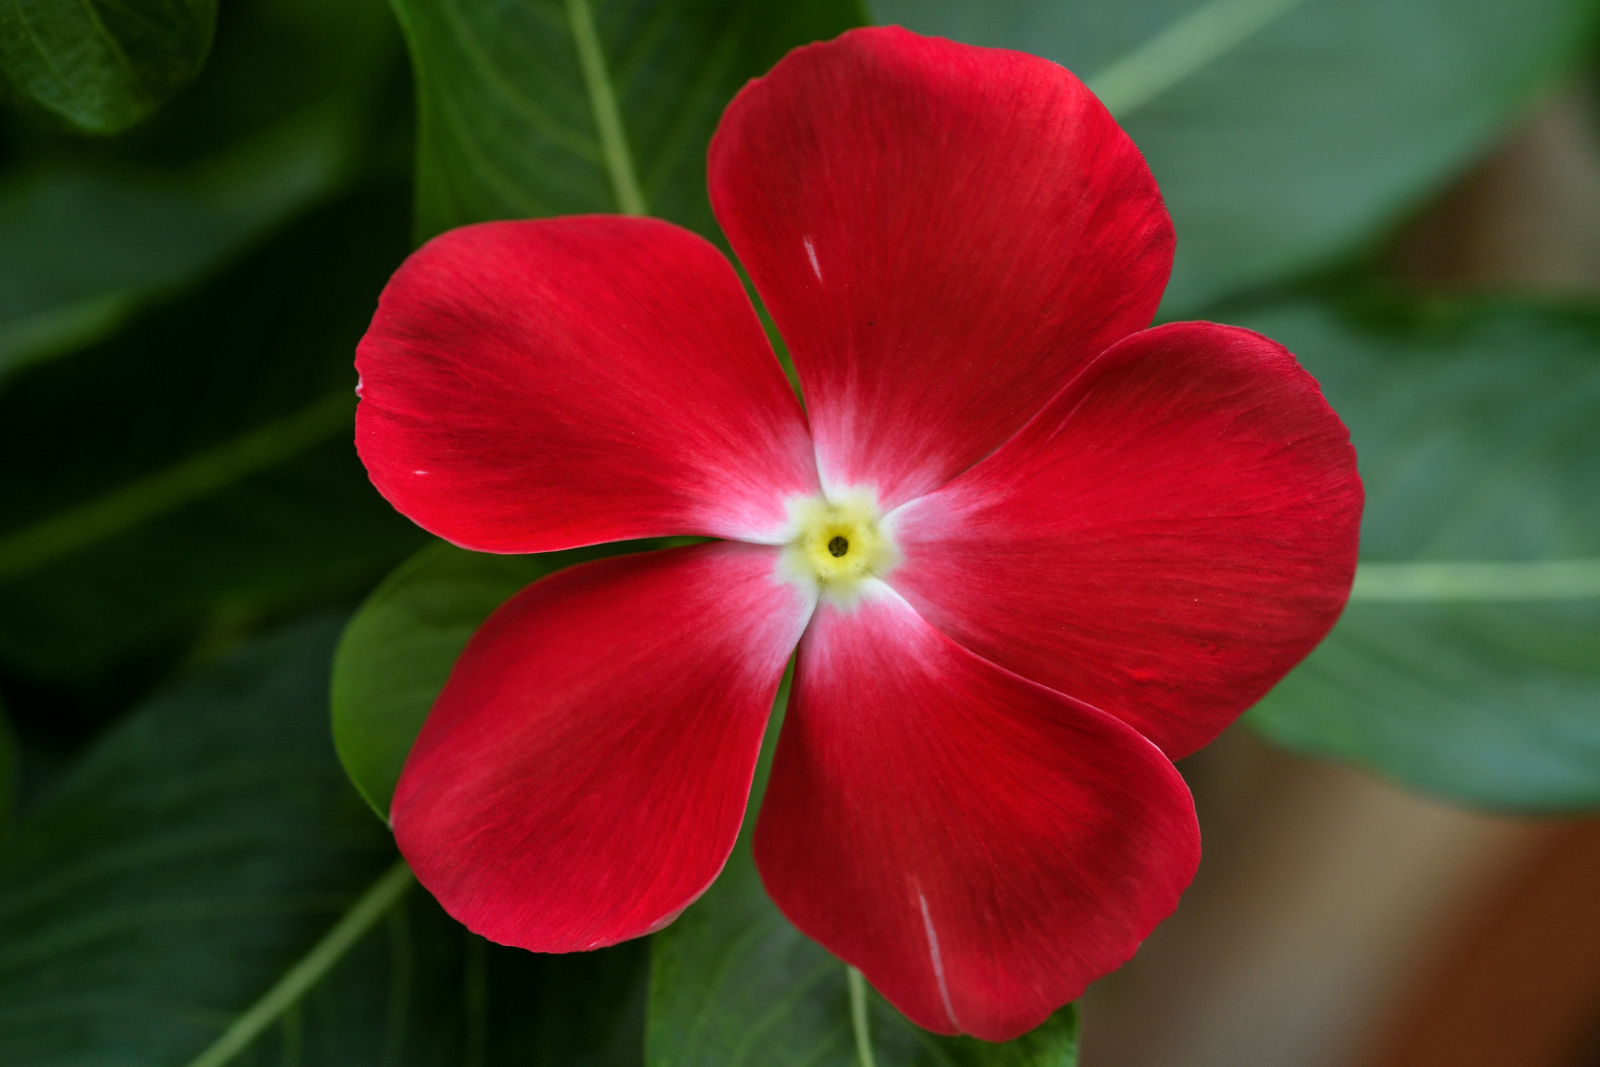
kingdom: Plantae
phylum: Tracheophyta
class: Magnoliopsida
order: Gentianales
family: Apocynaceae
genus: Catharanthus
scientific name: Catharanthus roseus
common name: Madagascar periwinkle
